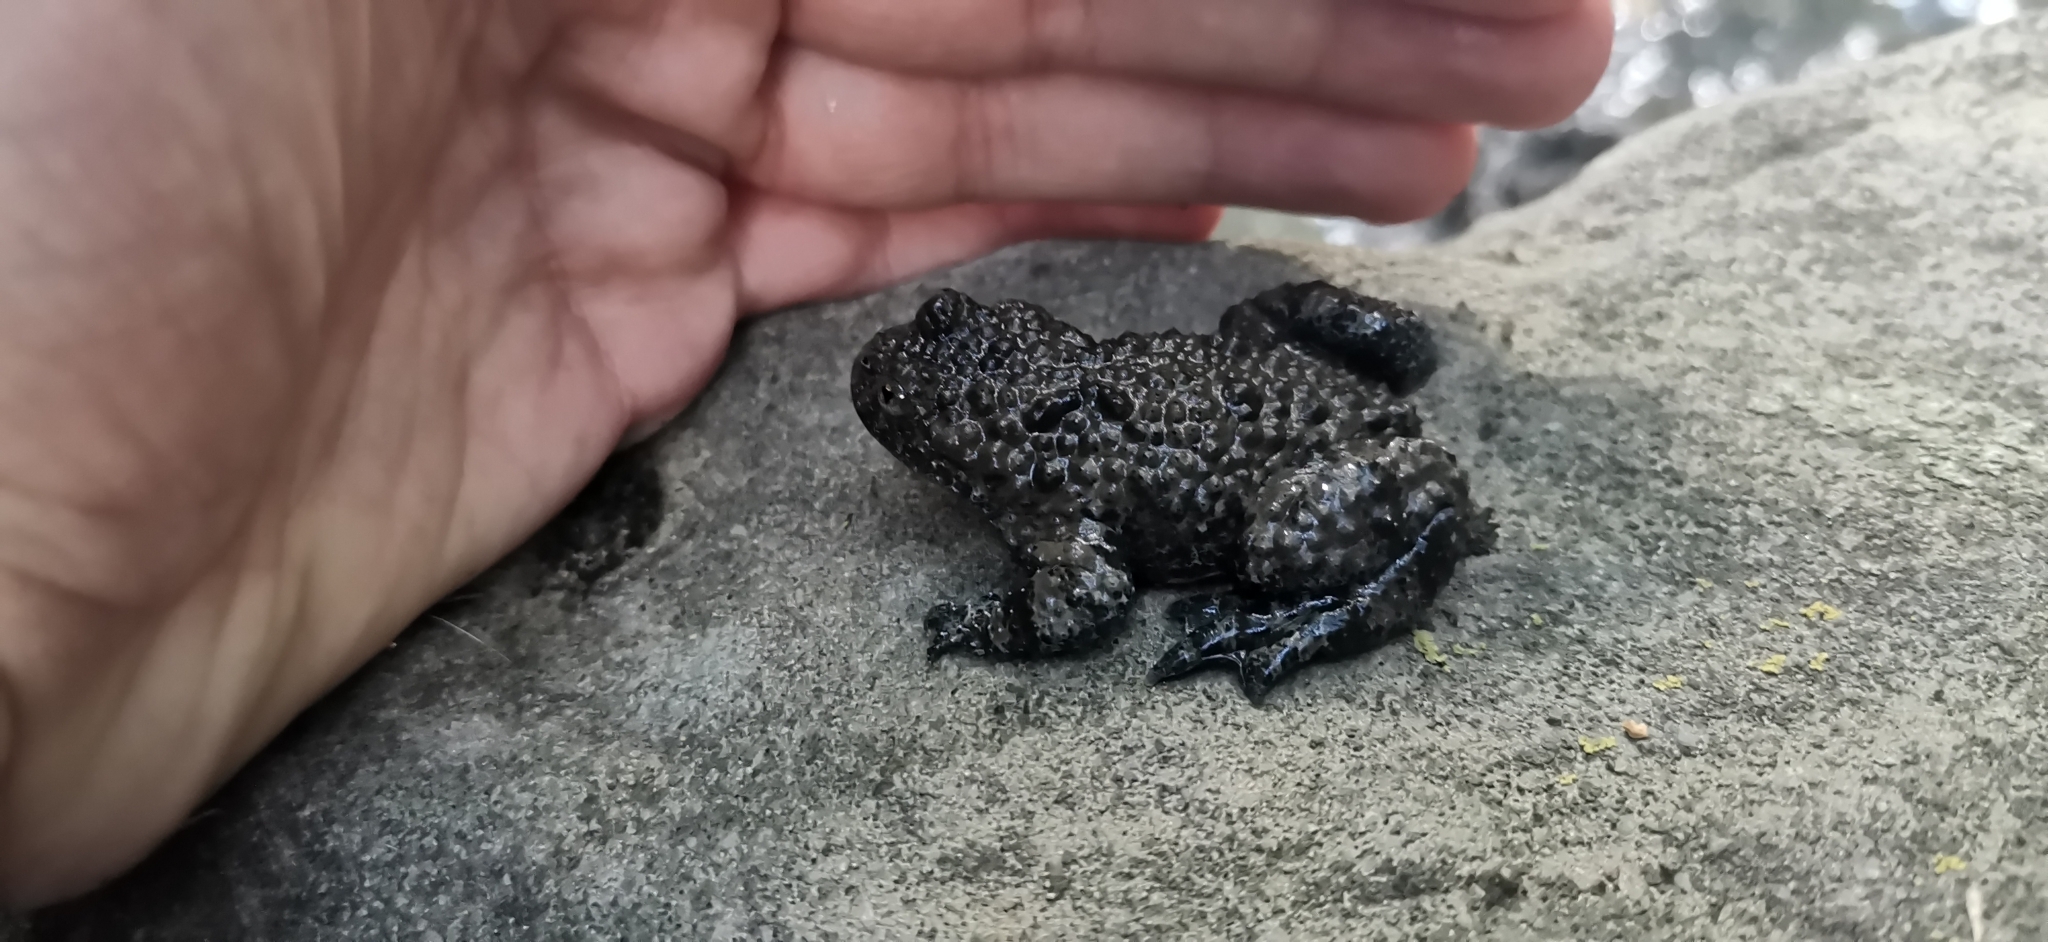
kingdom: Animalia
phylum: Chordata
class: Amphibia
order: Anura
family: Bombinatoridae
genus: Bombina
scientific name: Bombina variegata
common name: Yellow-bellied toad
